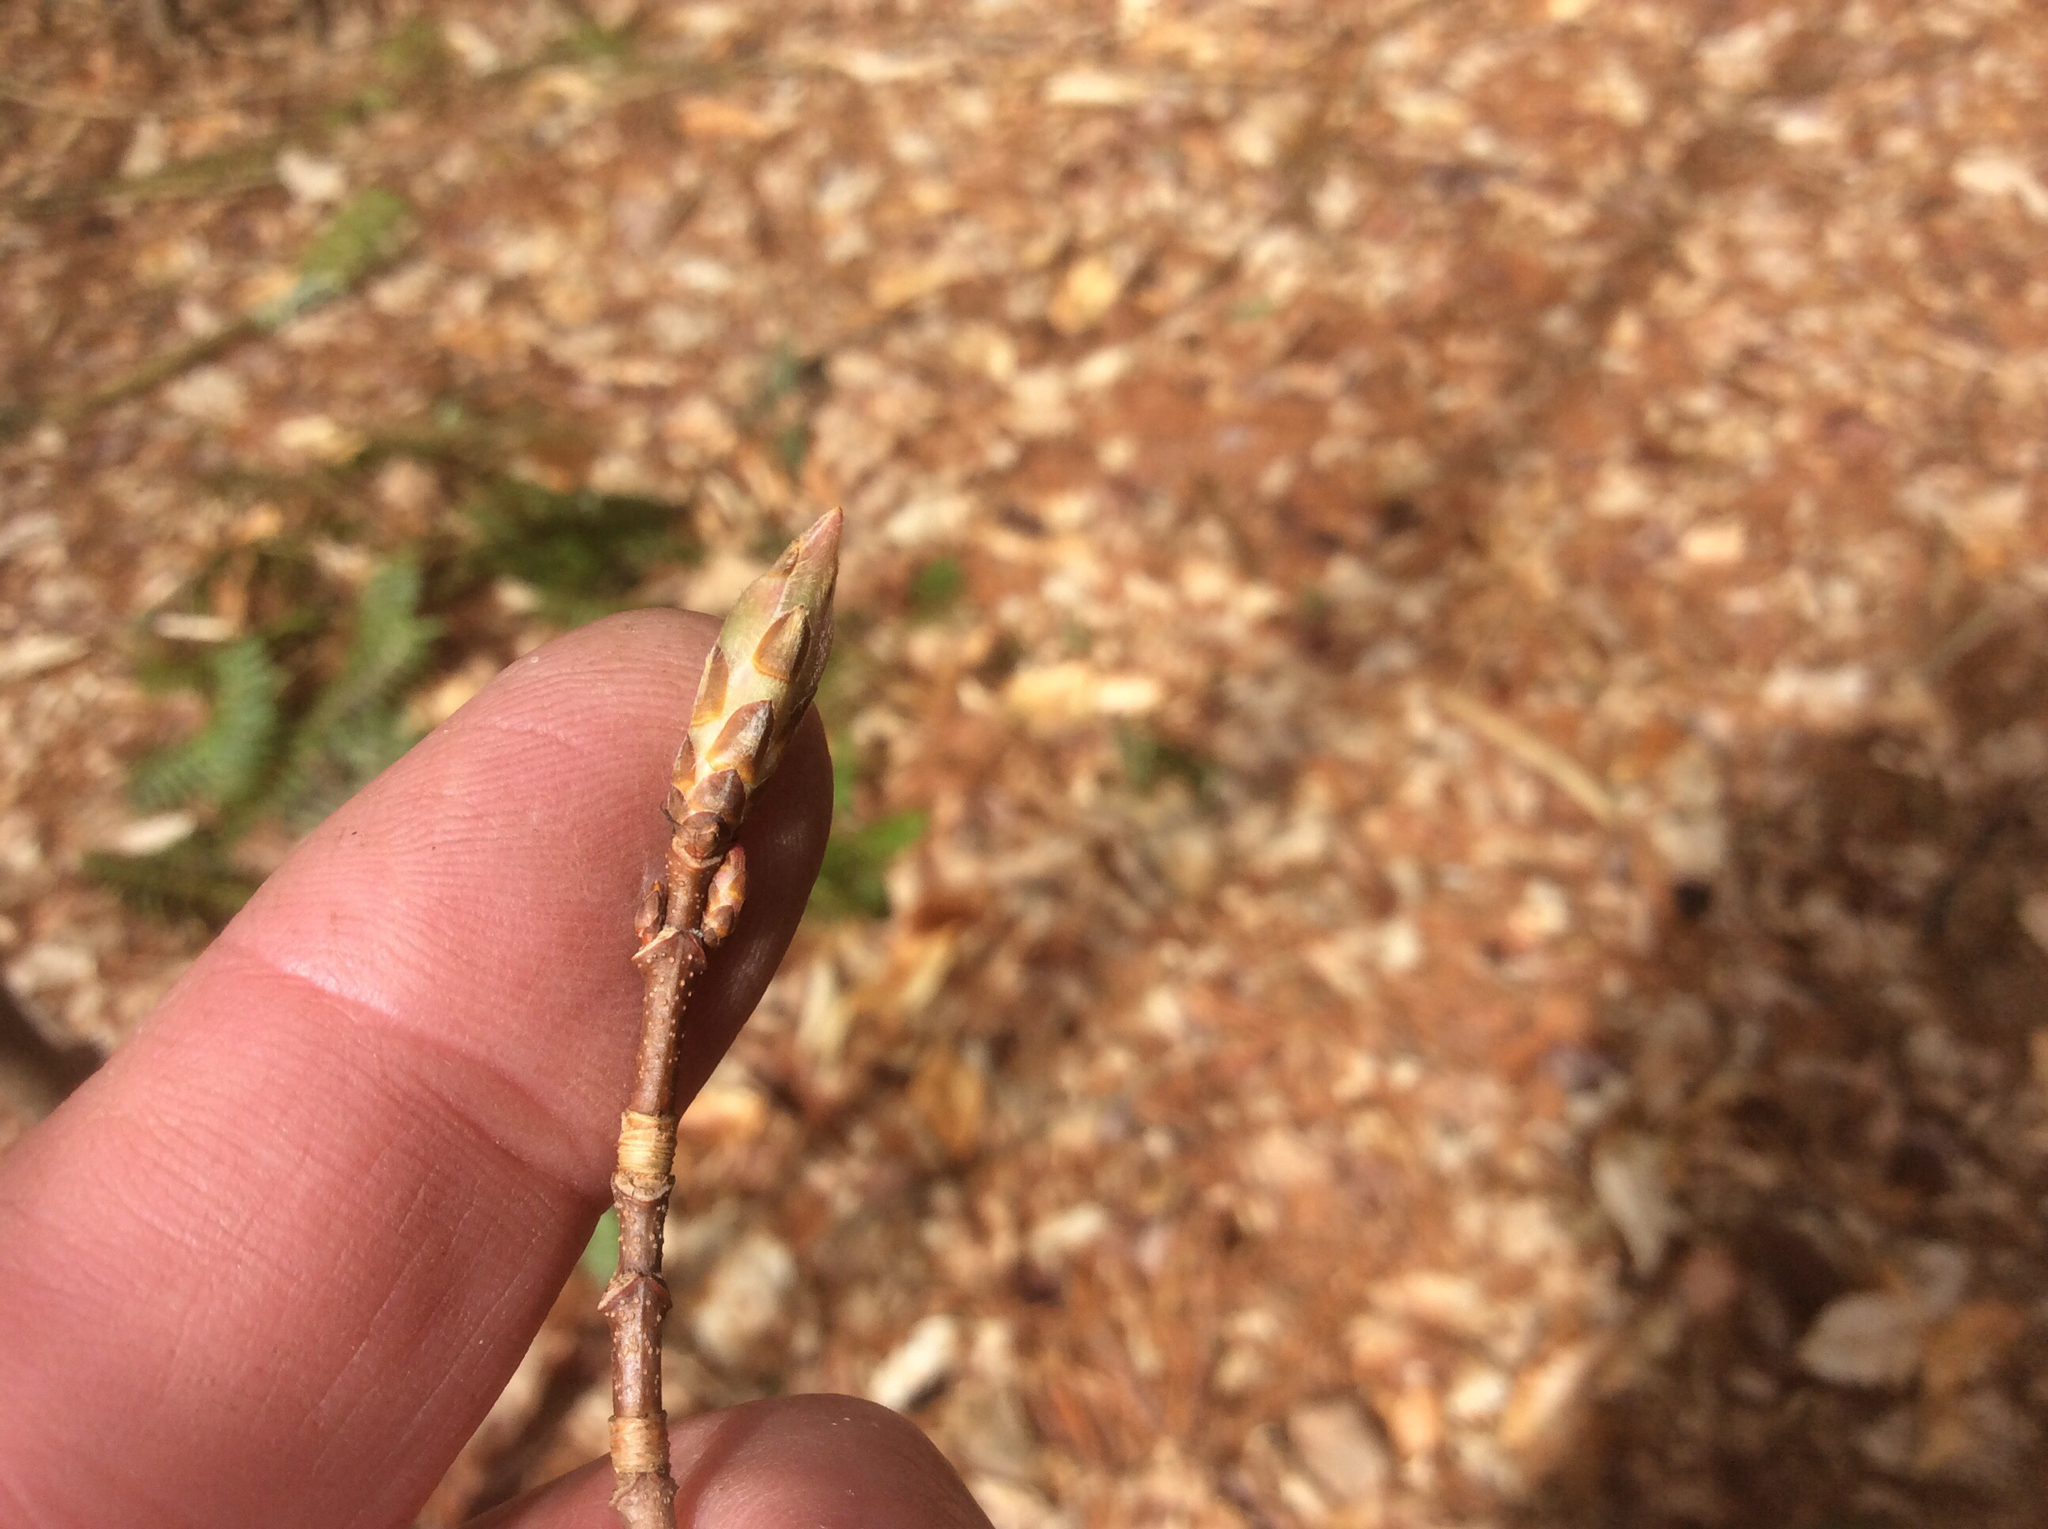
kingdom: Plantae
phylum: Tracheophyta
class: Magnoliopsida
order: Sapindales
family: Sapindaceae
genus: Acer
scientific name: Acer saccharum
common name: Sugar maple
